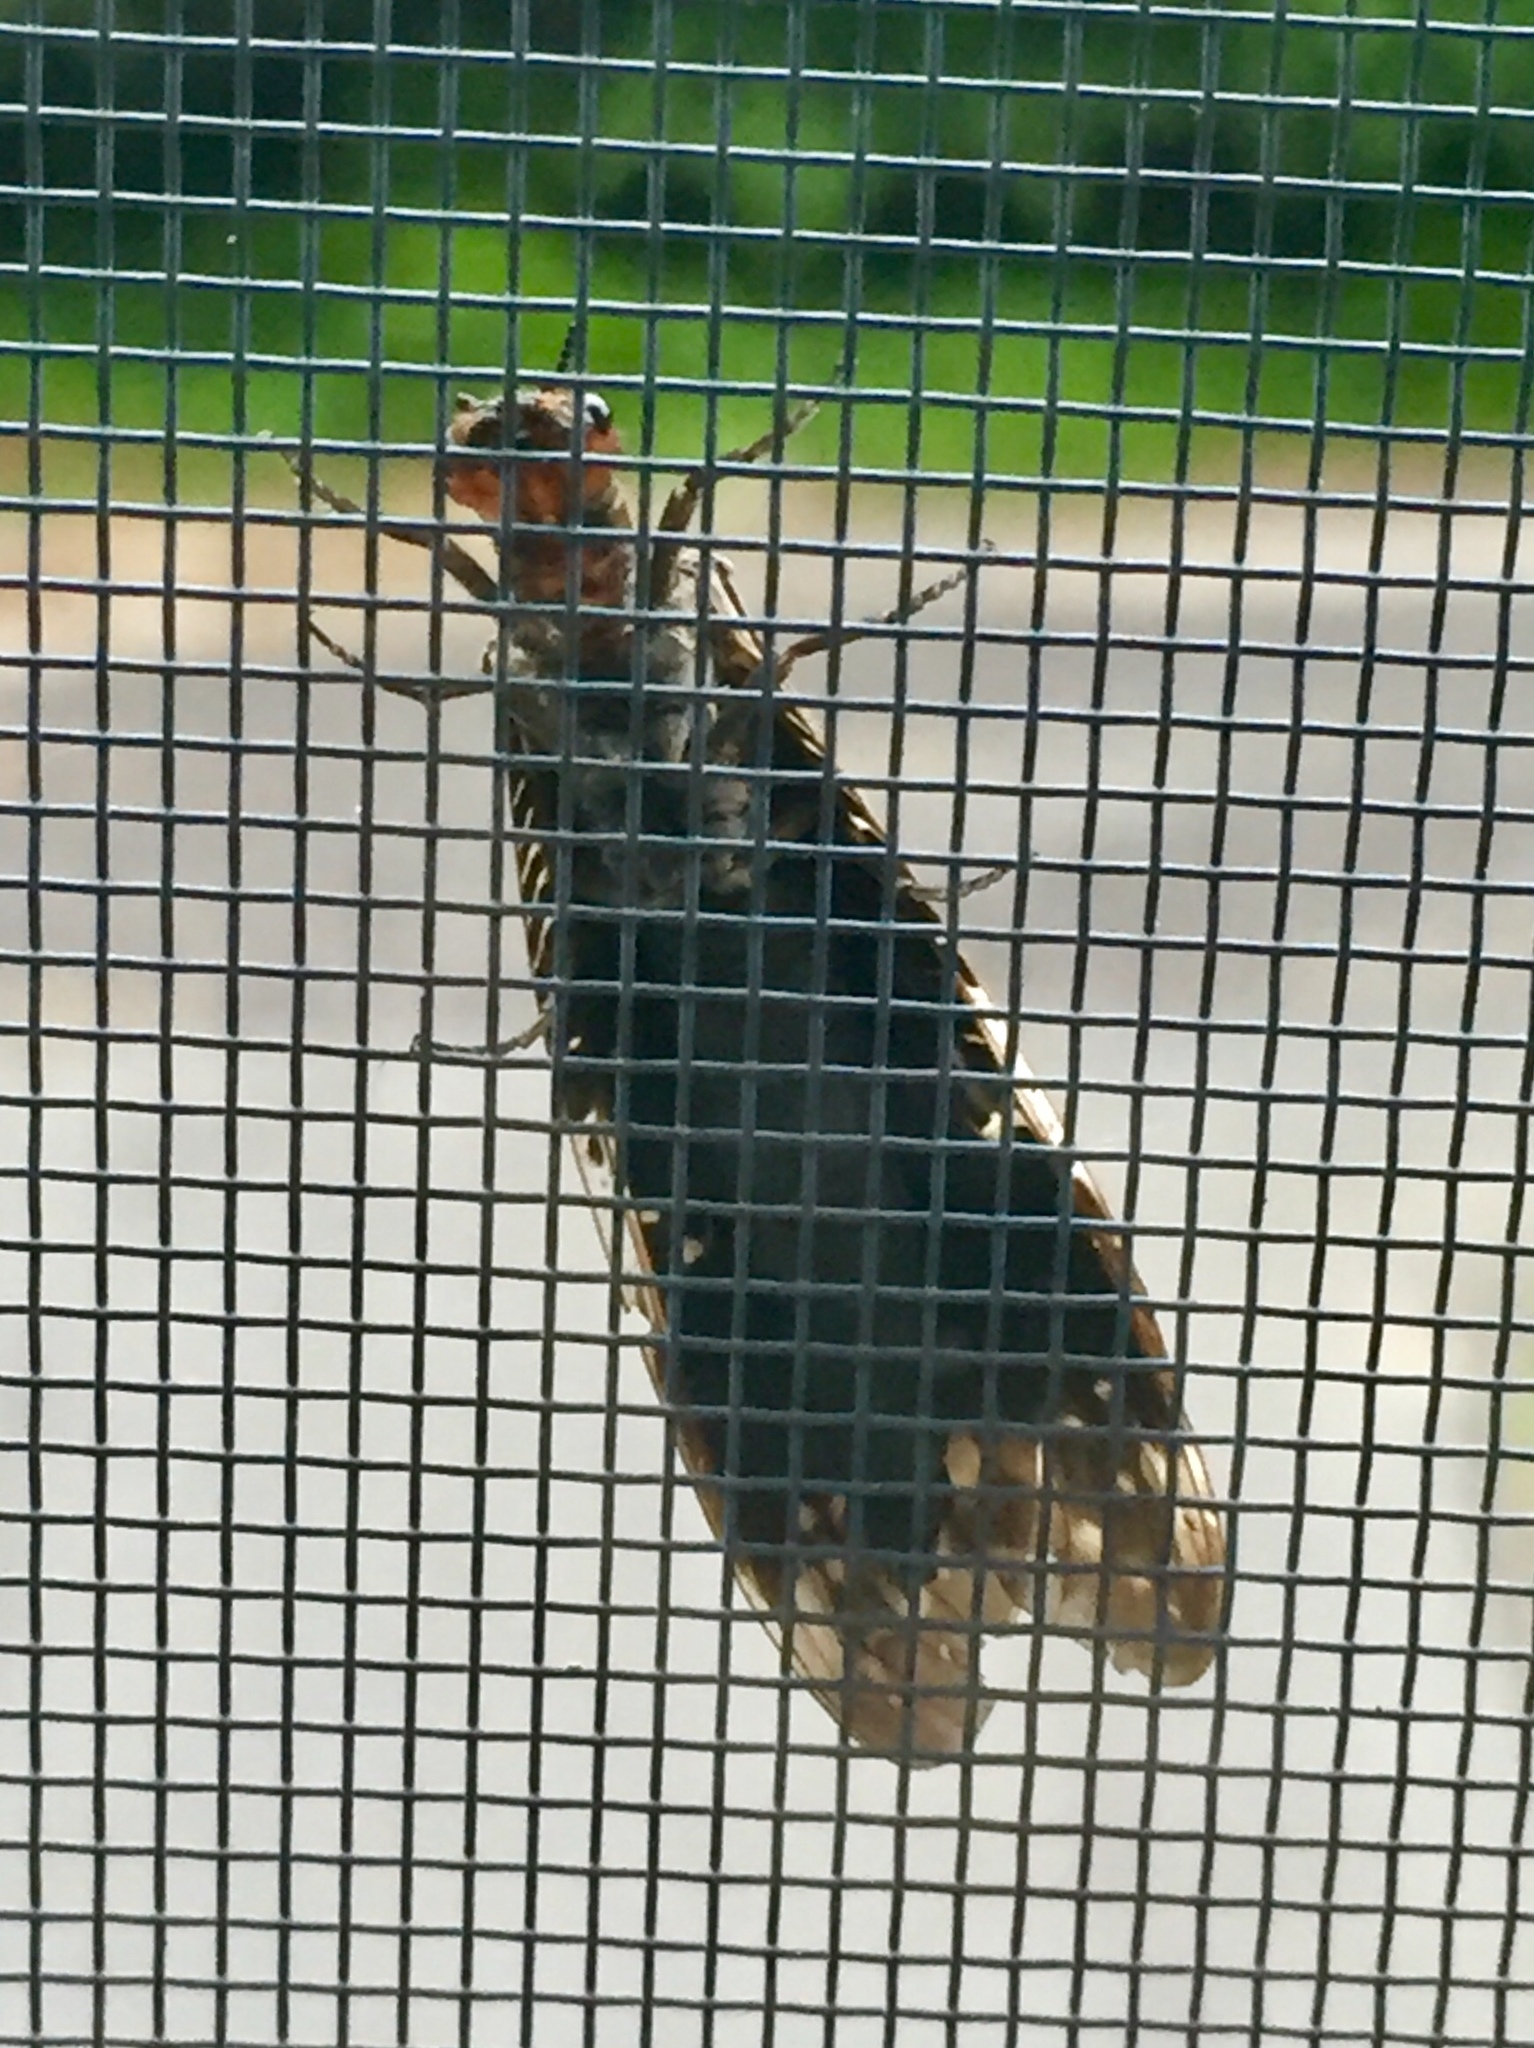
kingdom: Animalia
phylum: Arthropoda
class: Insecta
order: Megaloptera
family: Corydalidae
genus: Nigronia
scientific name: Nigronia serricornis
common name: Serrate dark fishfly
